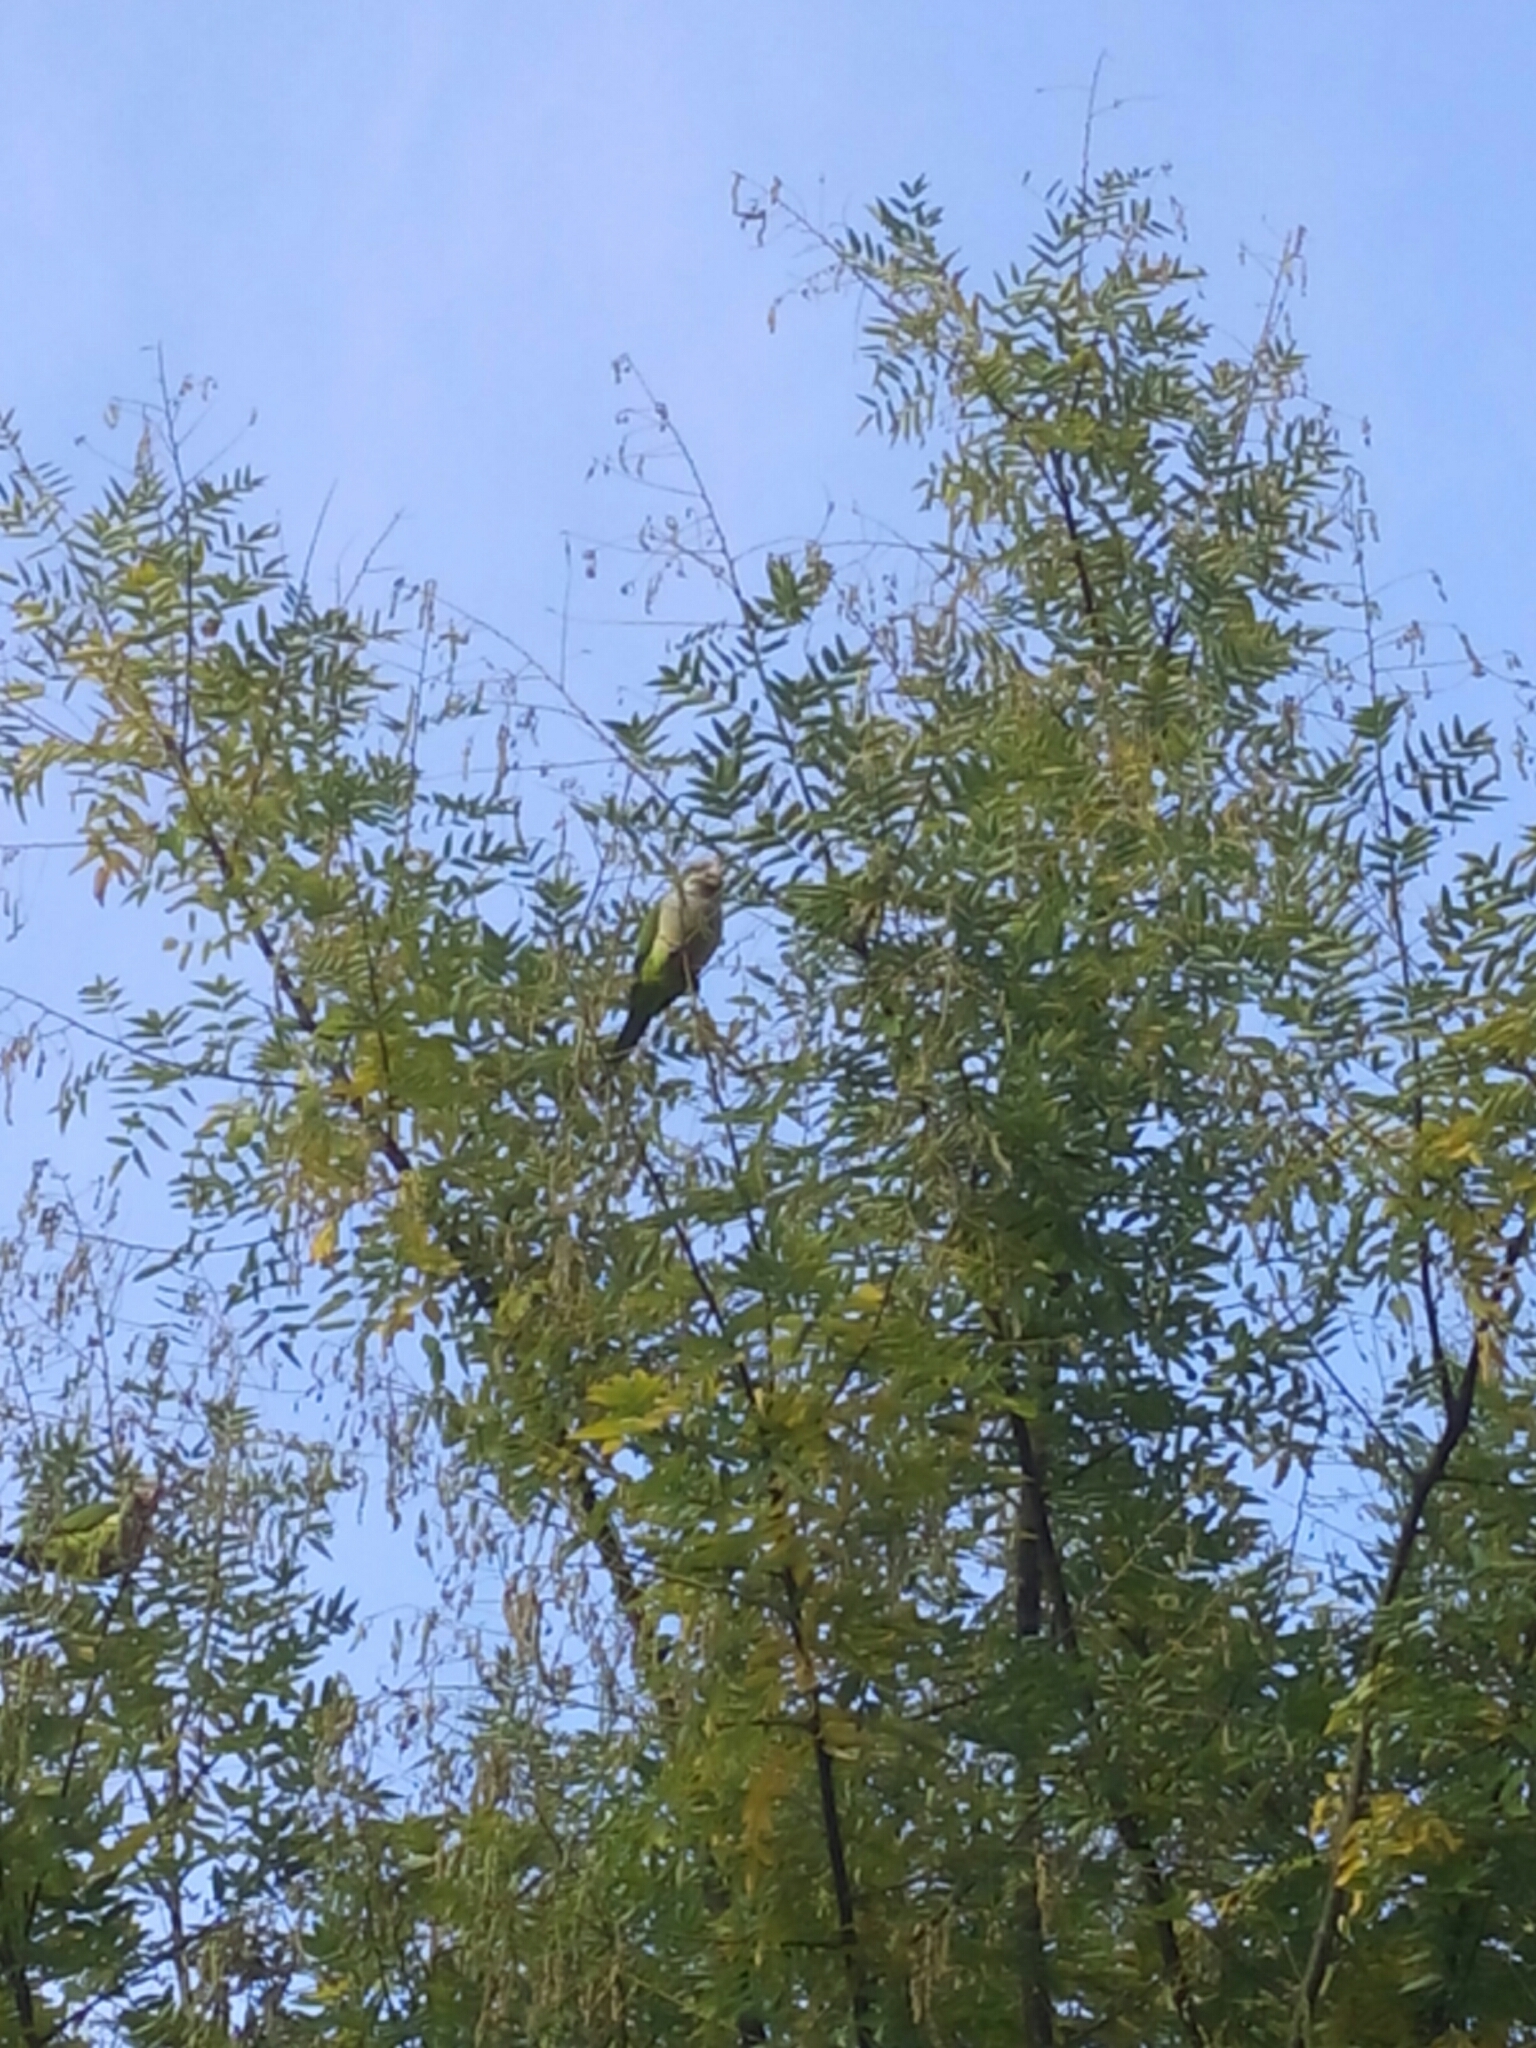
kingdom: Animalia
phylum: Chordata
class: Aves
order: Psittaciformes
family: Psittacidae
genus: Myiopsitta
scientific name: Myiopsitta monachus
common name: Monk parakeet
